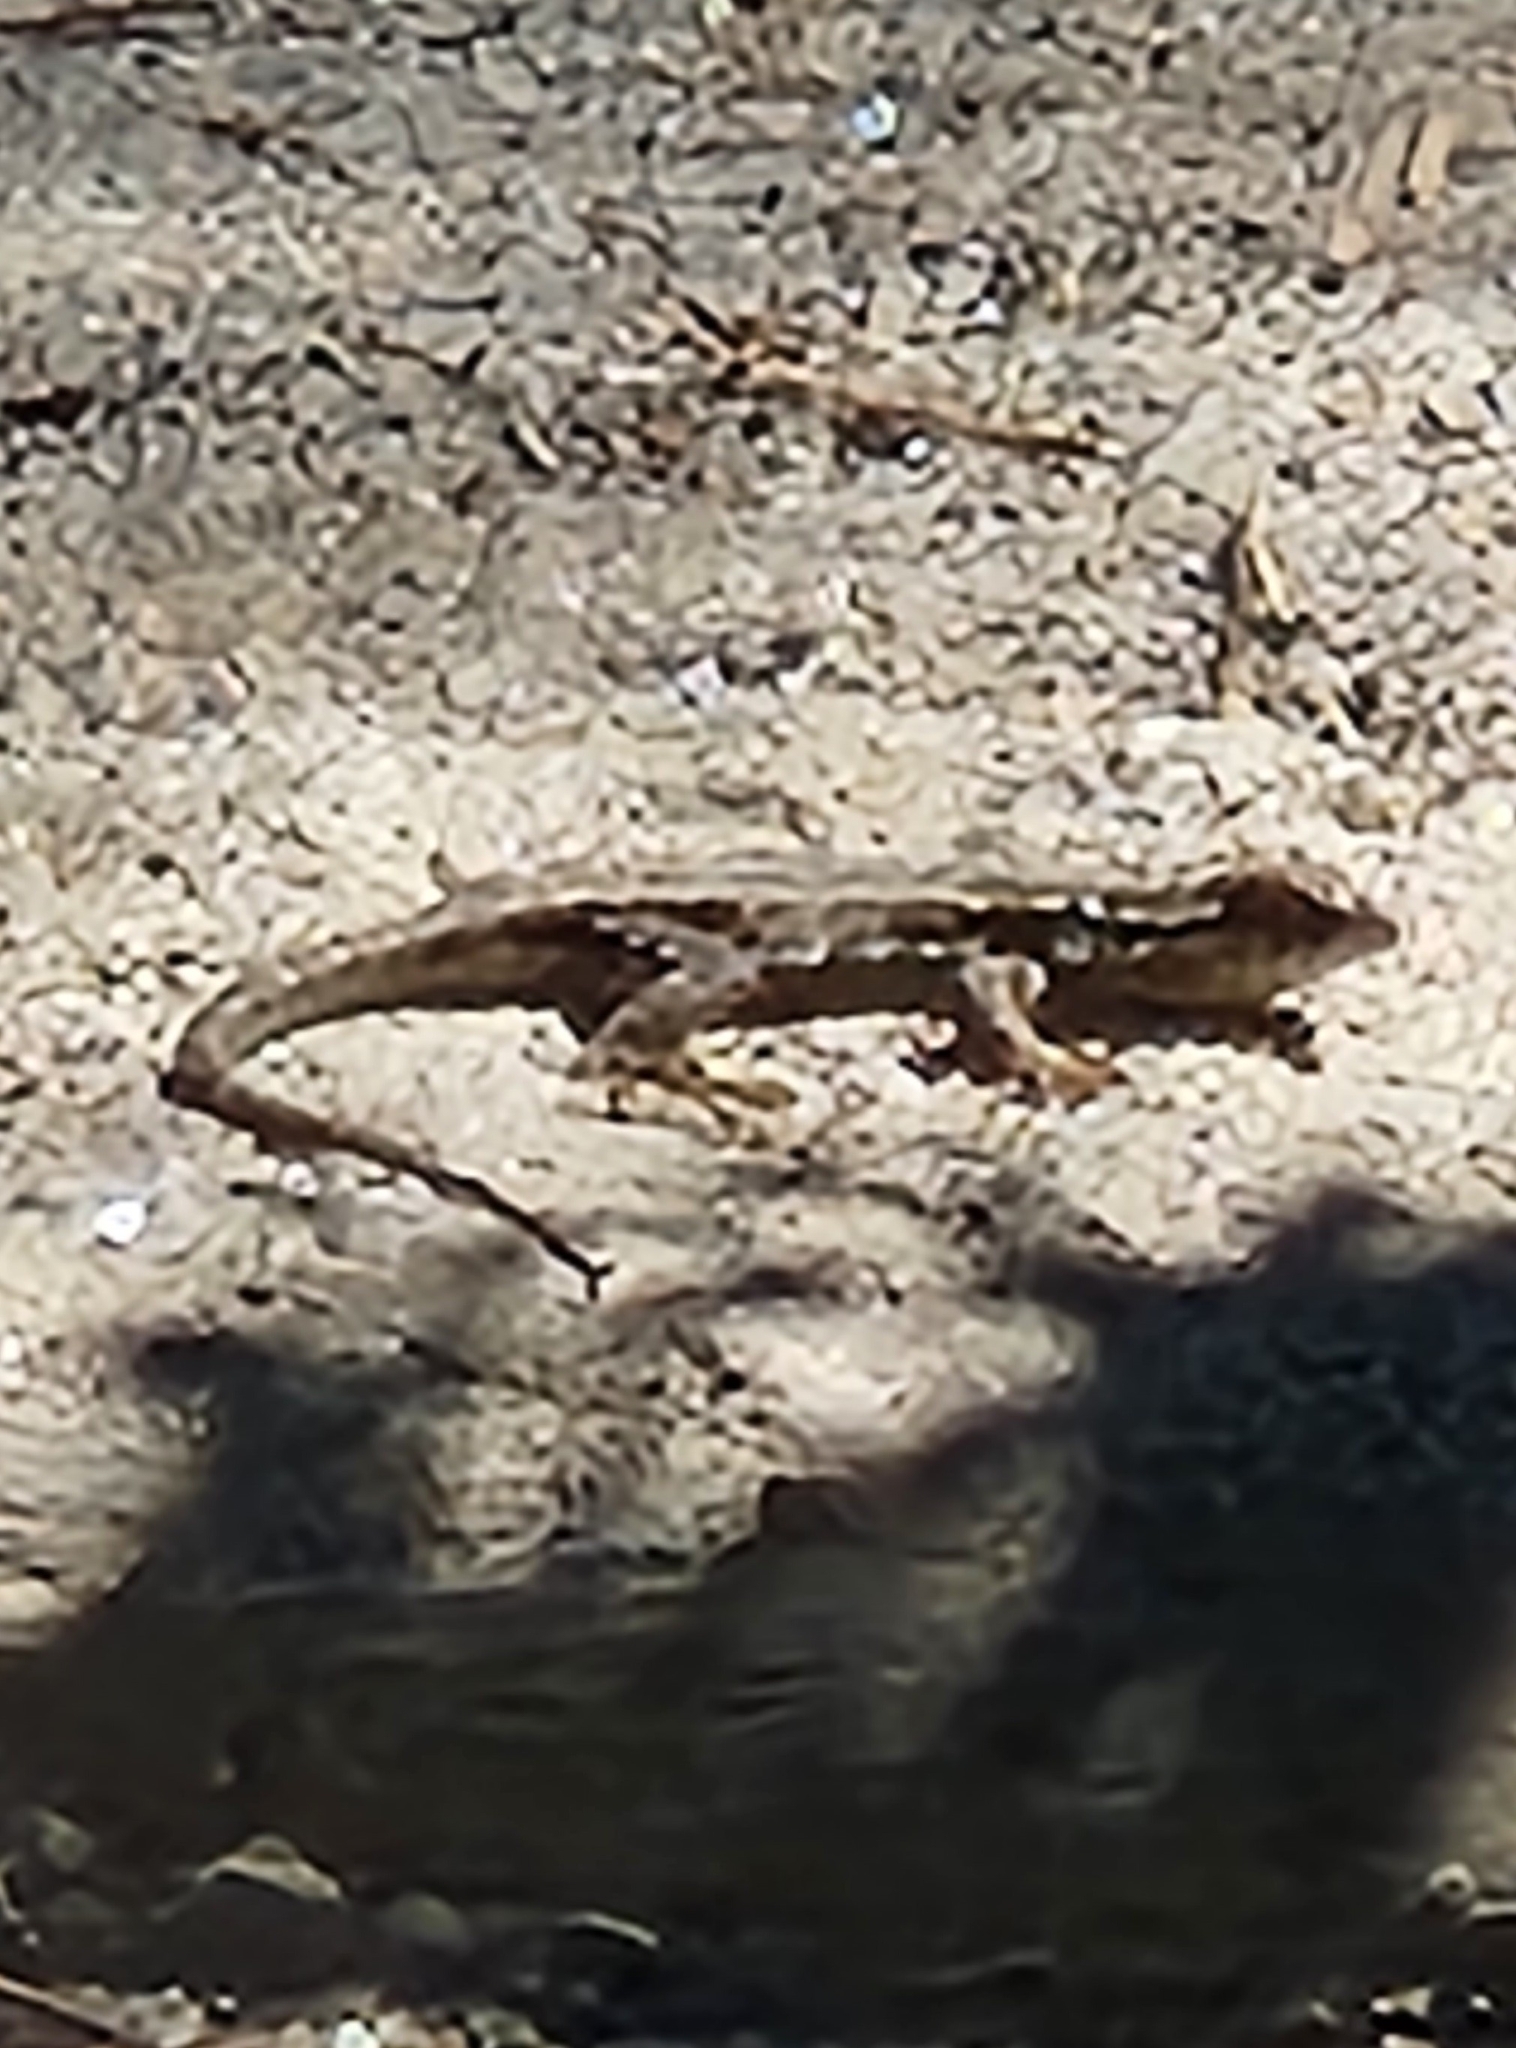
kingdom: Animalia
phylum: Chordata
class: Squamata
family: Phrynosomatidae
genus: Uta
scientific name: Uta stansburiana
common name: Side-blotched lizard
